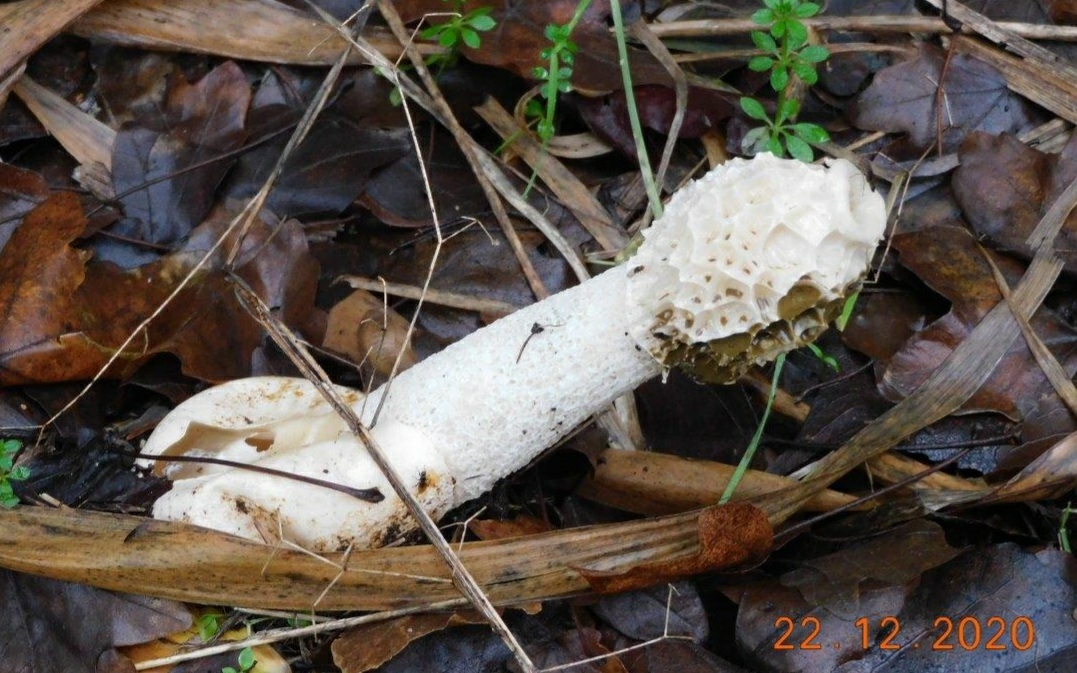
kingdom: Fungi
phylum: Basidiomycota
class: Agaricomycetes
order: Phallales
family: Phallaceae
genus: Phallus
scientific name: Phallus impudicus
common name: Common stinkhorn
